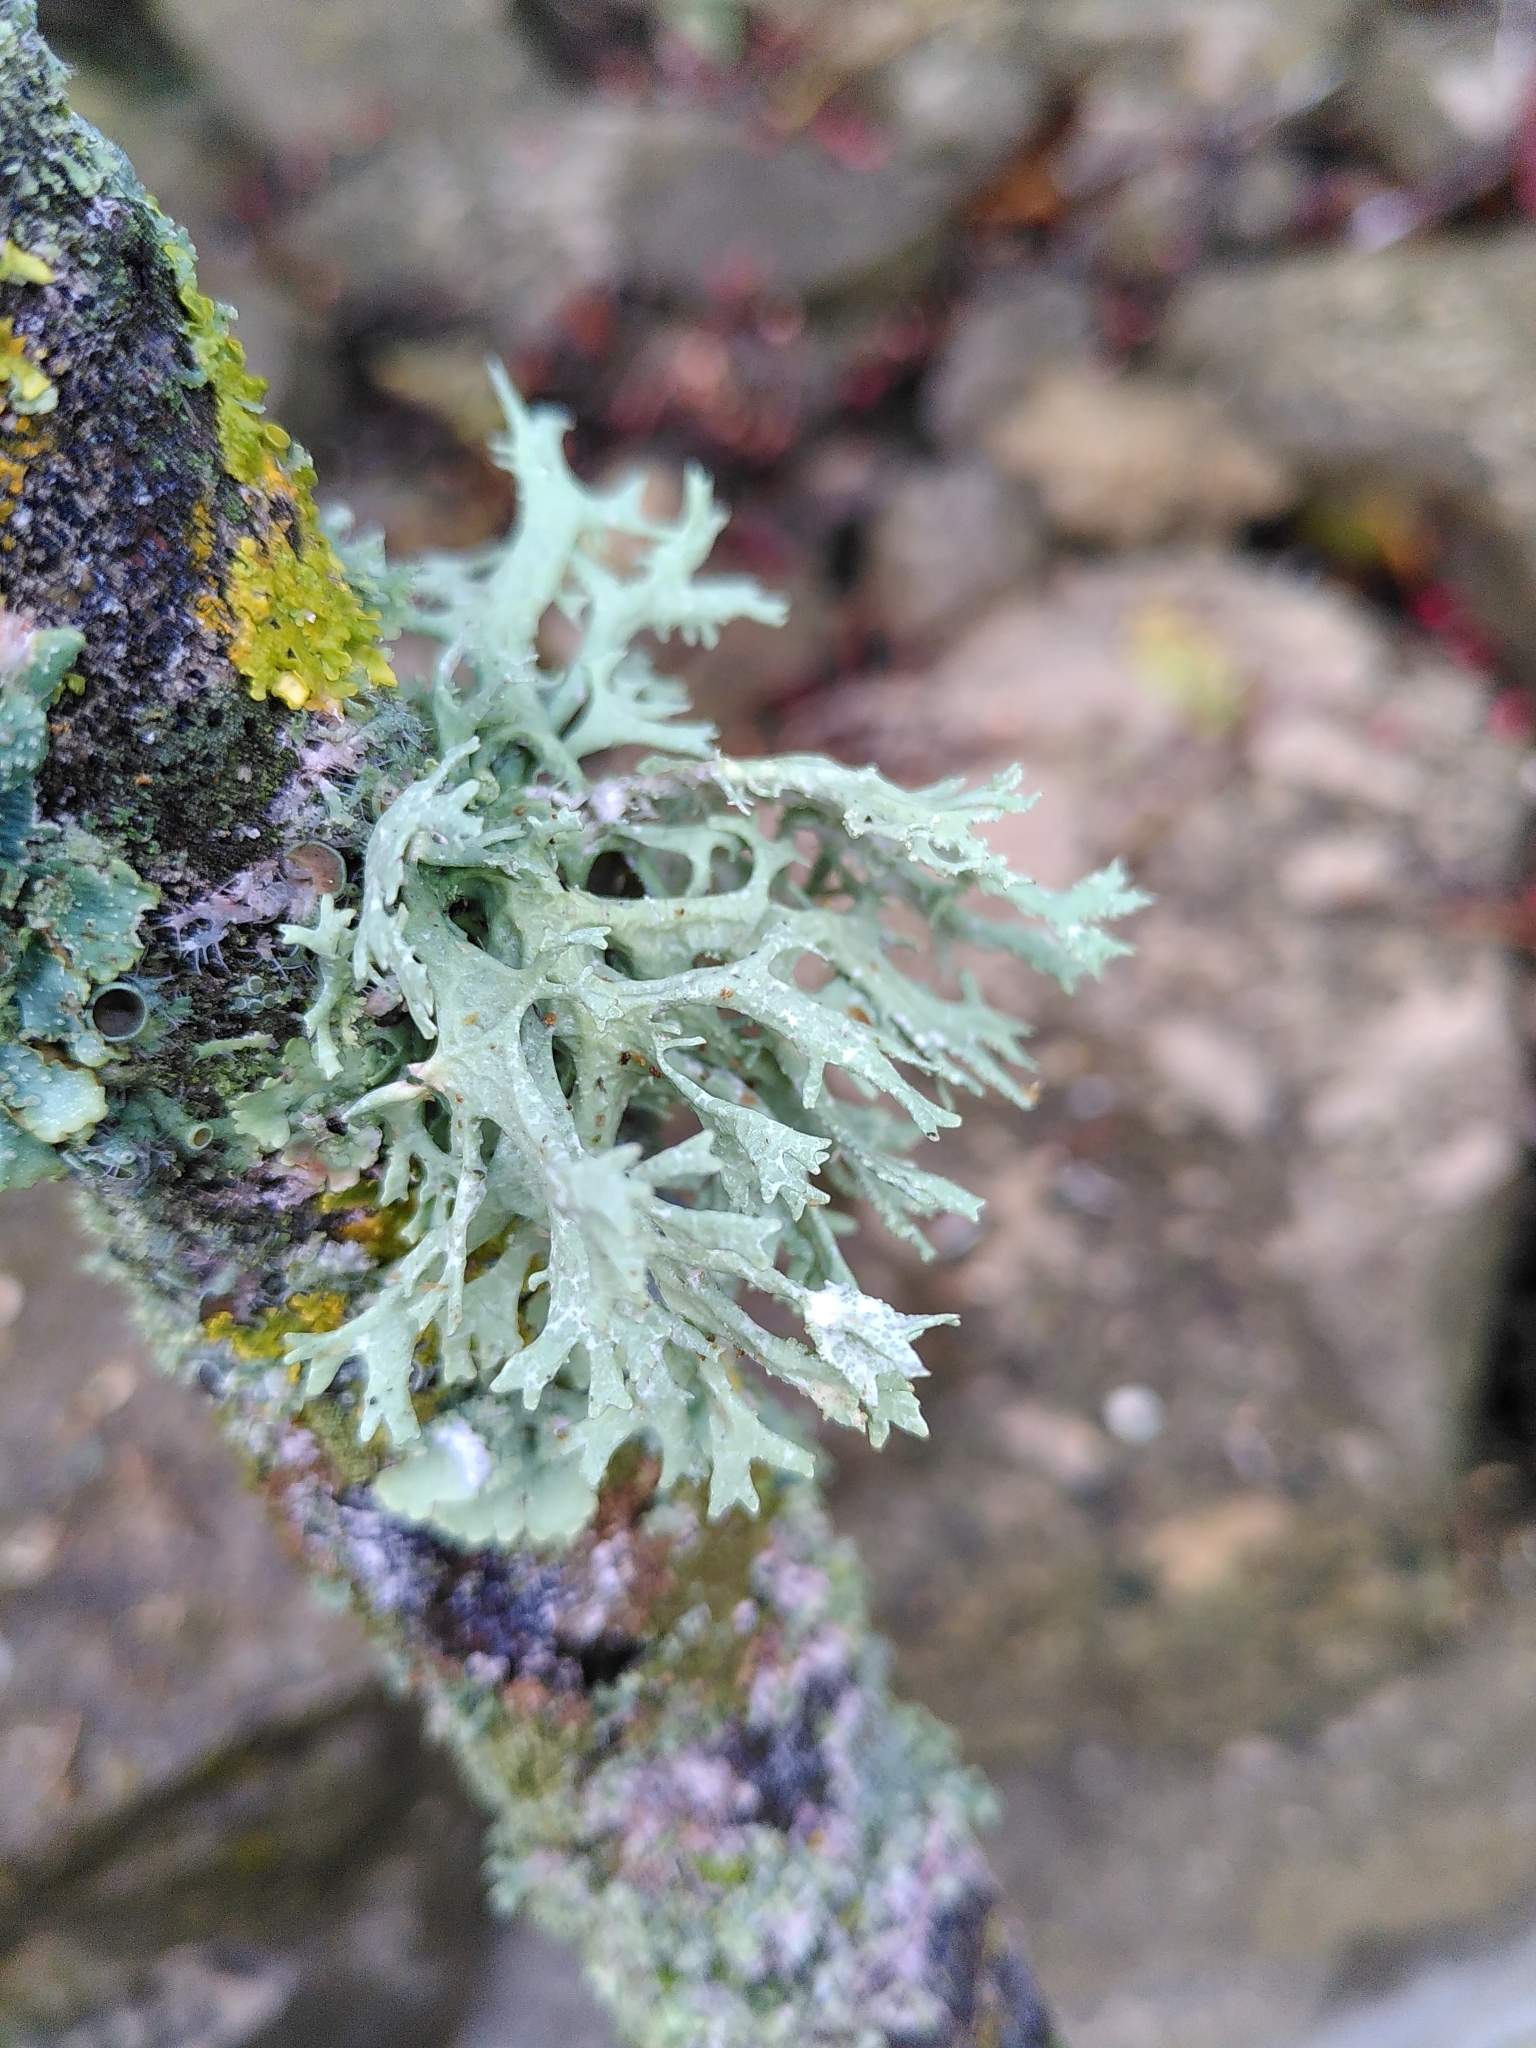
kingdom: Fungi
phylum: Ascomycota
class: Lecanoromycetes
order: Lecanorales
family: Parmeliaceae
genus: Evernia
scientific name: Evernia prunastri
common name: Oak moss
